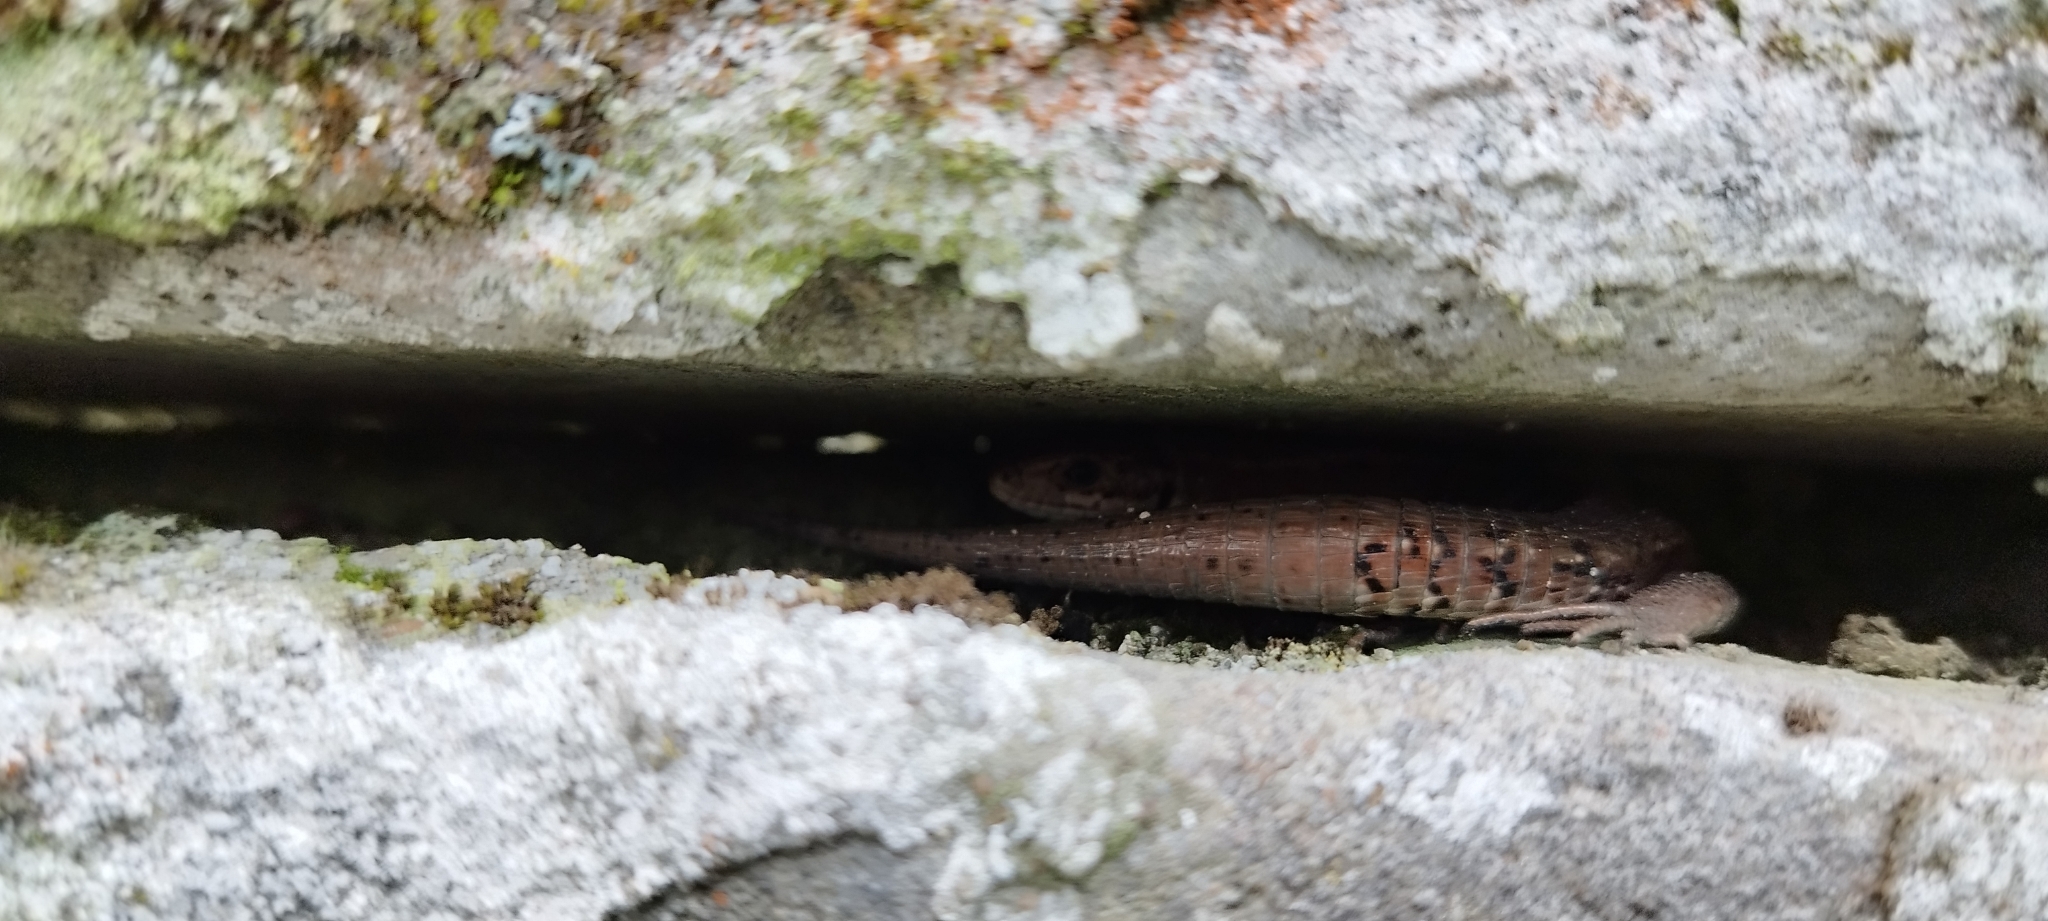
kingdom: Animalia
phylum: Chordata
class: Squamata
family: Lacertidae
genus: Zootoca
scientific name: Zootoca vivipara
